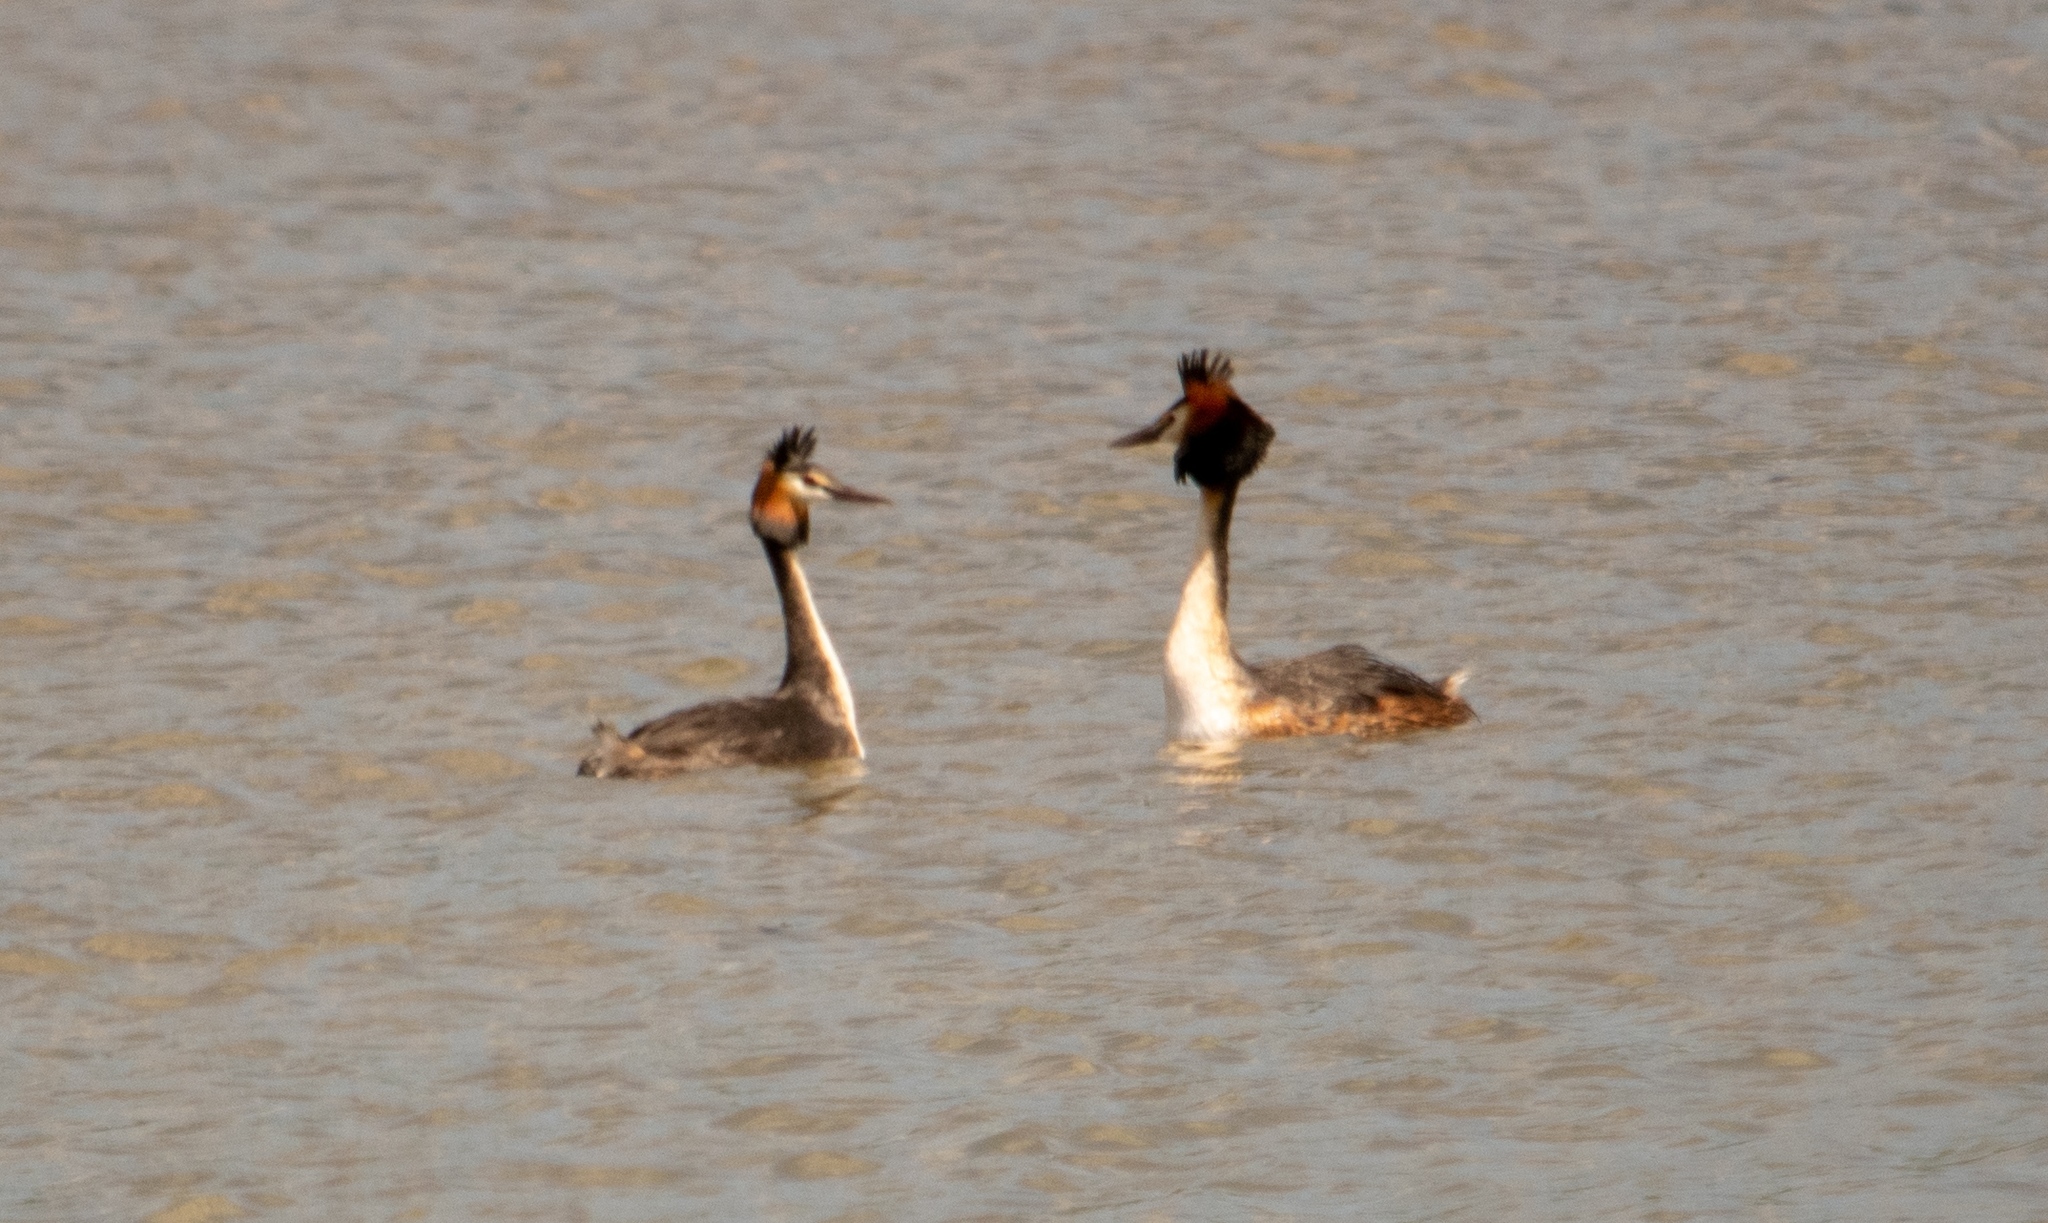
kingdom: Animalia
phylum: Chordata
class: Aves
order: Podicipediformes
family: Podicipedidae
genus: Podiceps
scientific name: Podiceps cristatus
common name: Great crested grebe
